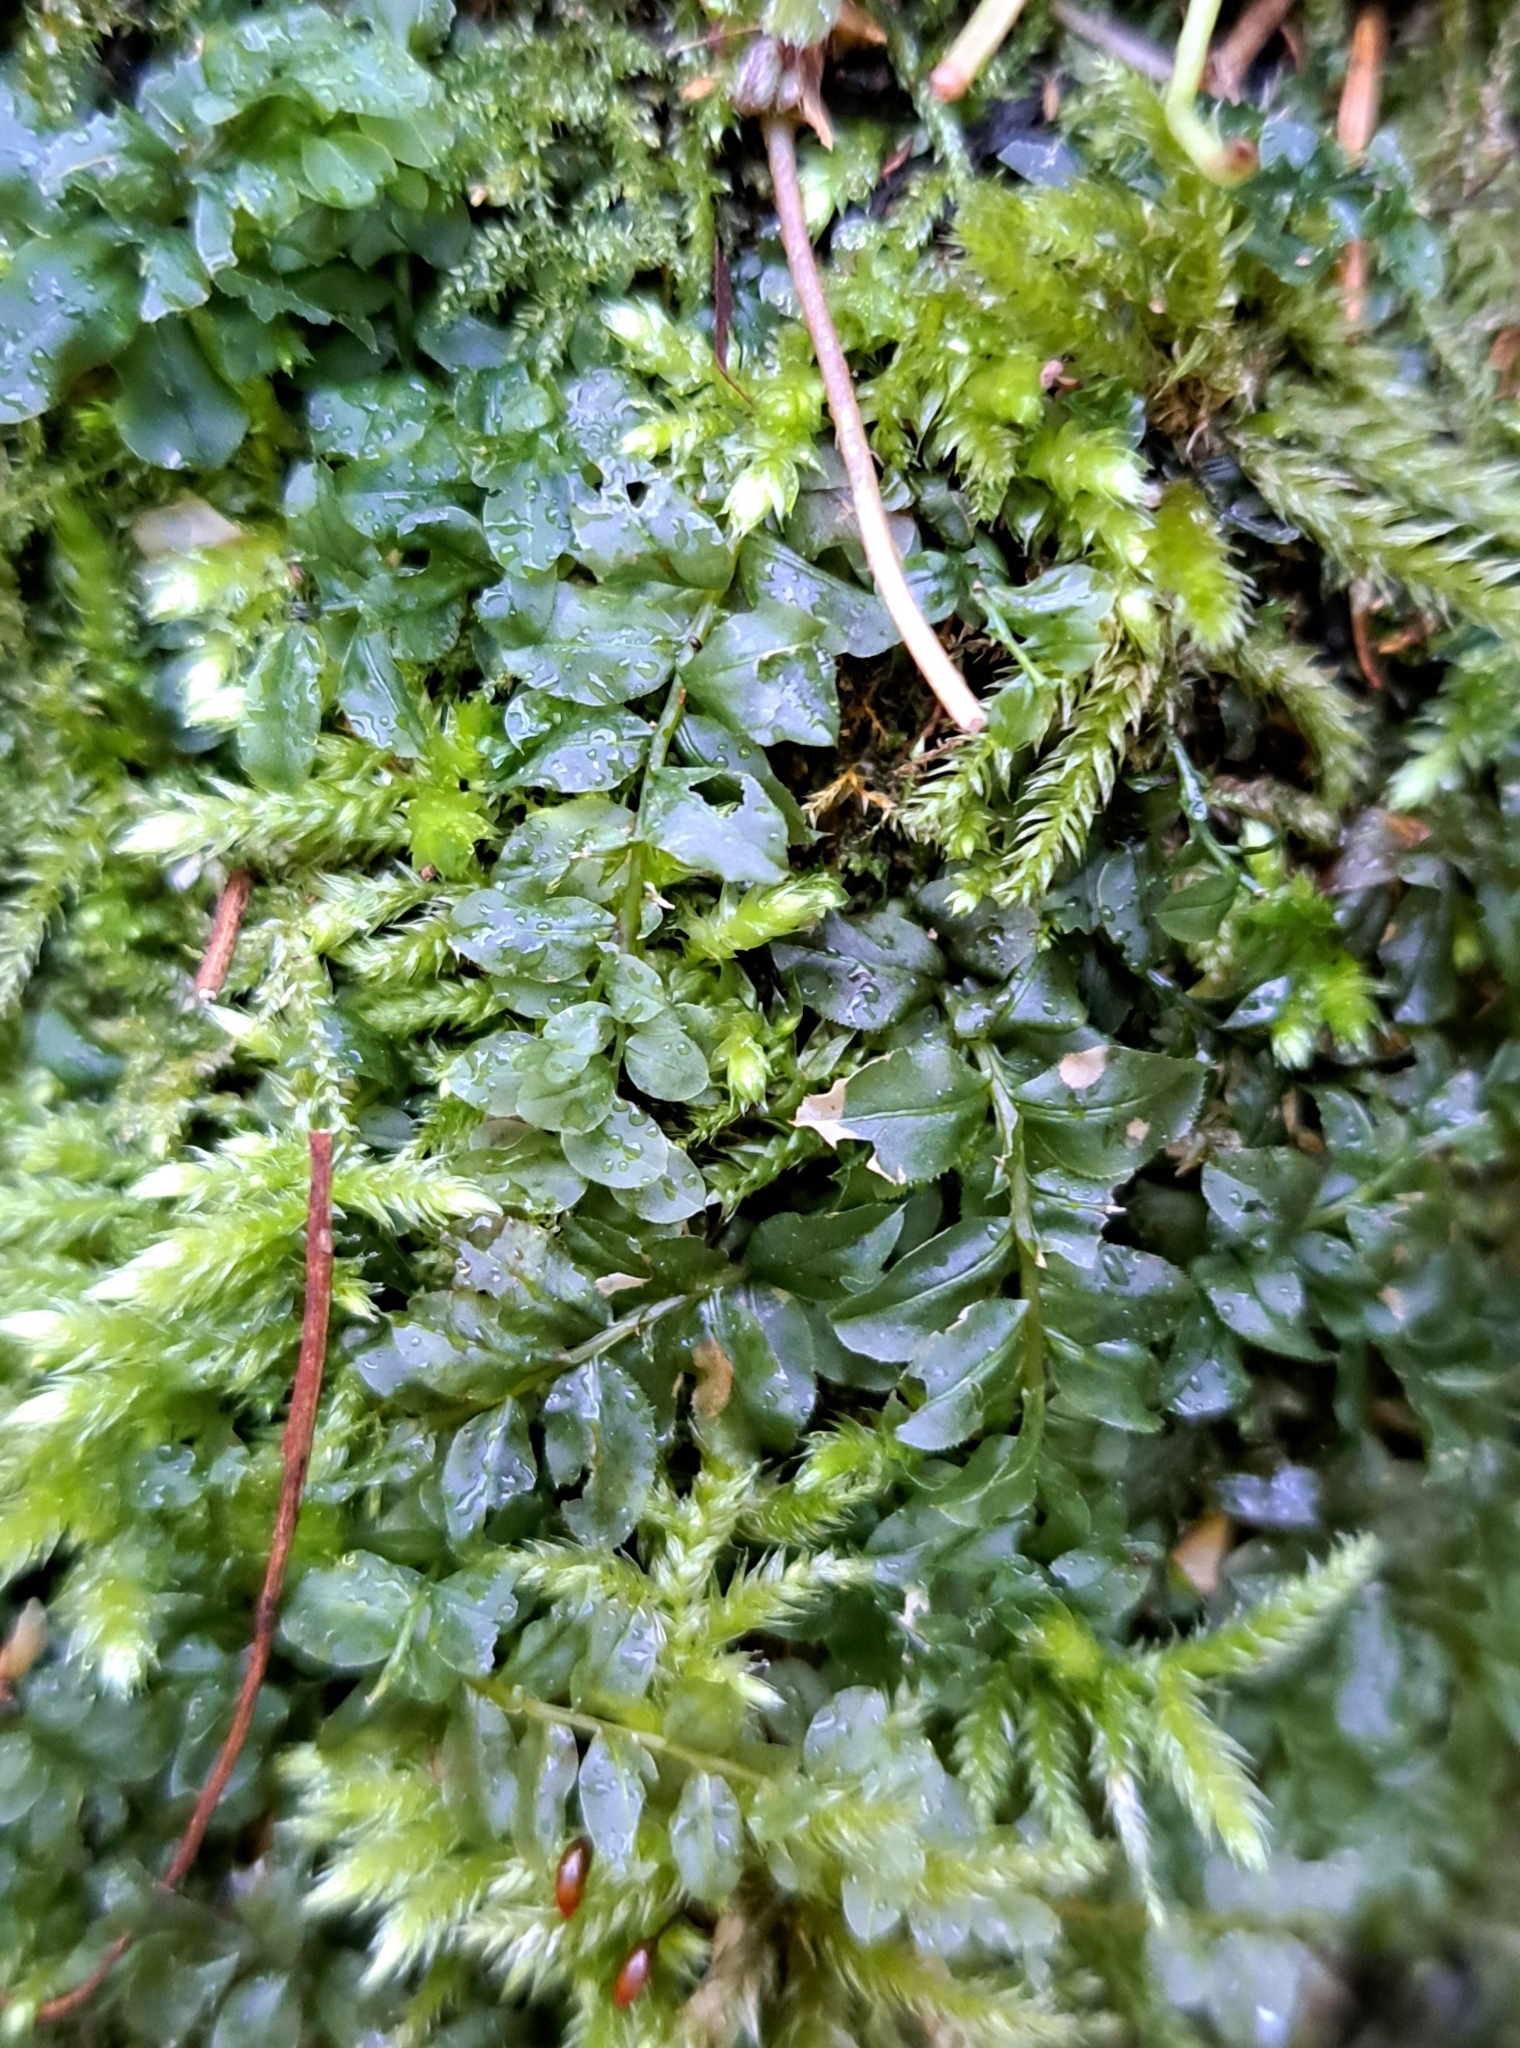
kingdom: Plantae
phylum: Bryophyta
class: Bryopsida
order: Bryales
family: Mniaceae
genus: Plagiomnium
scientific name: Plagiomnium affine
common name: Many-fruited thyme-moss
